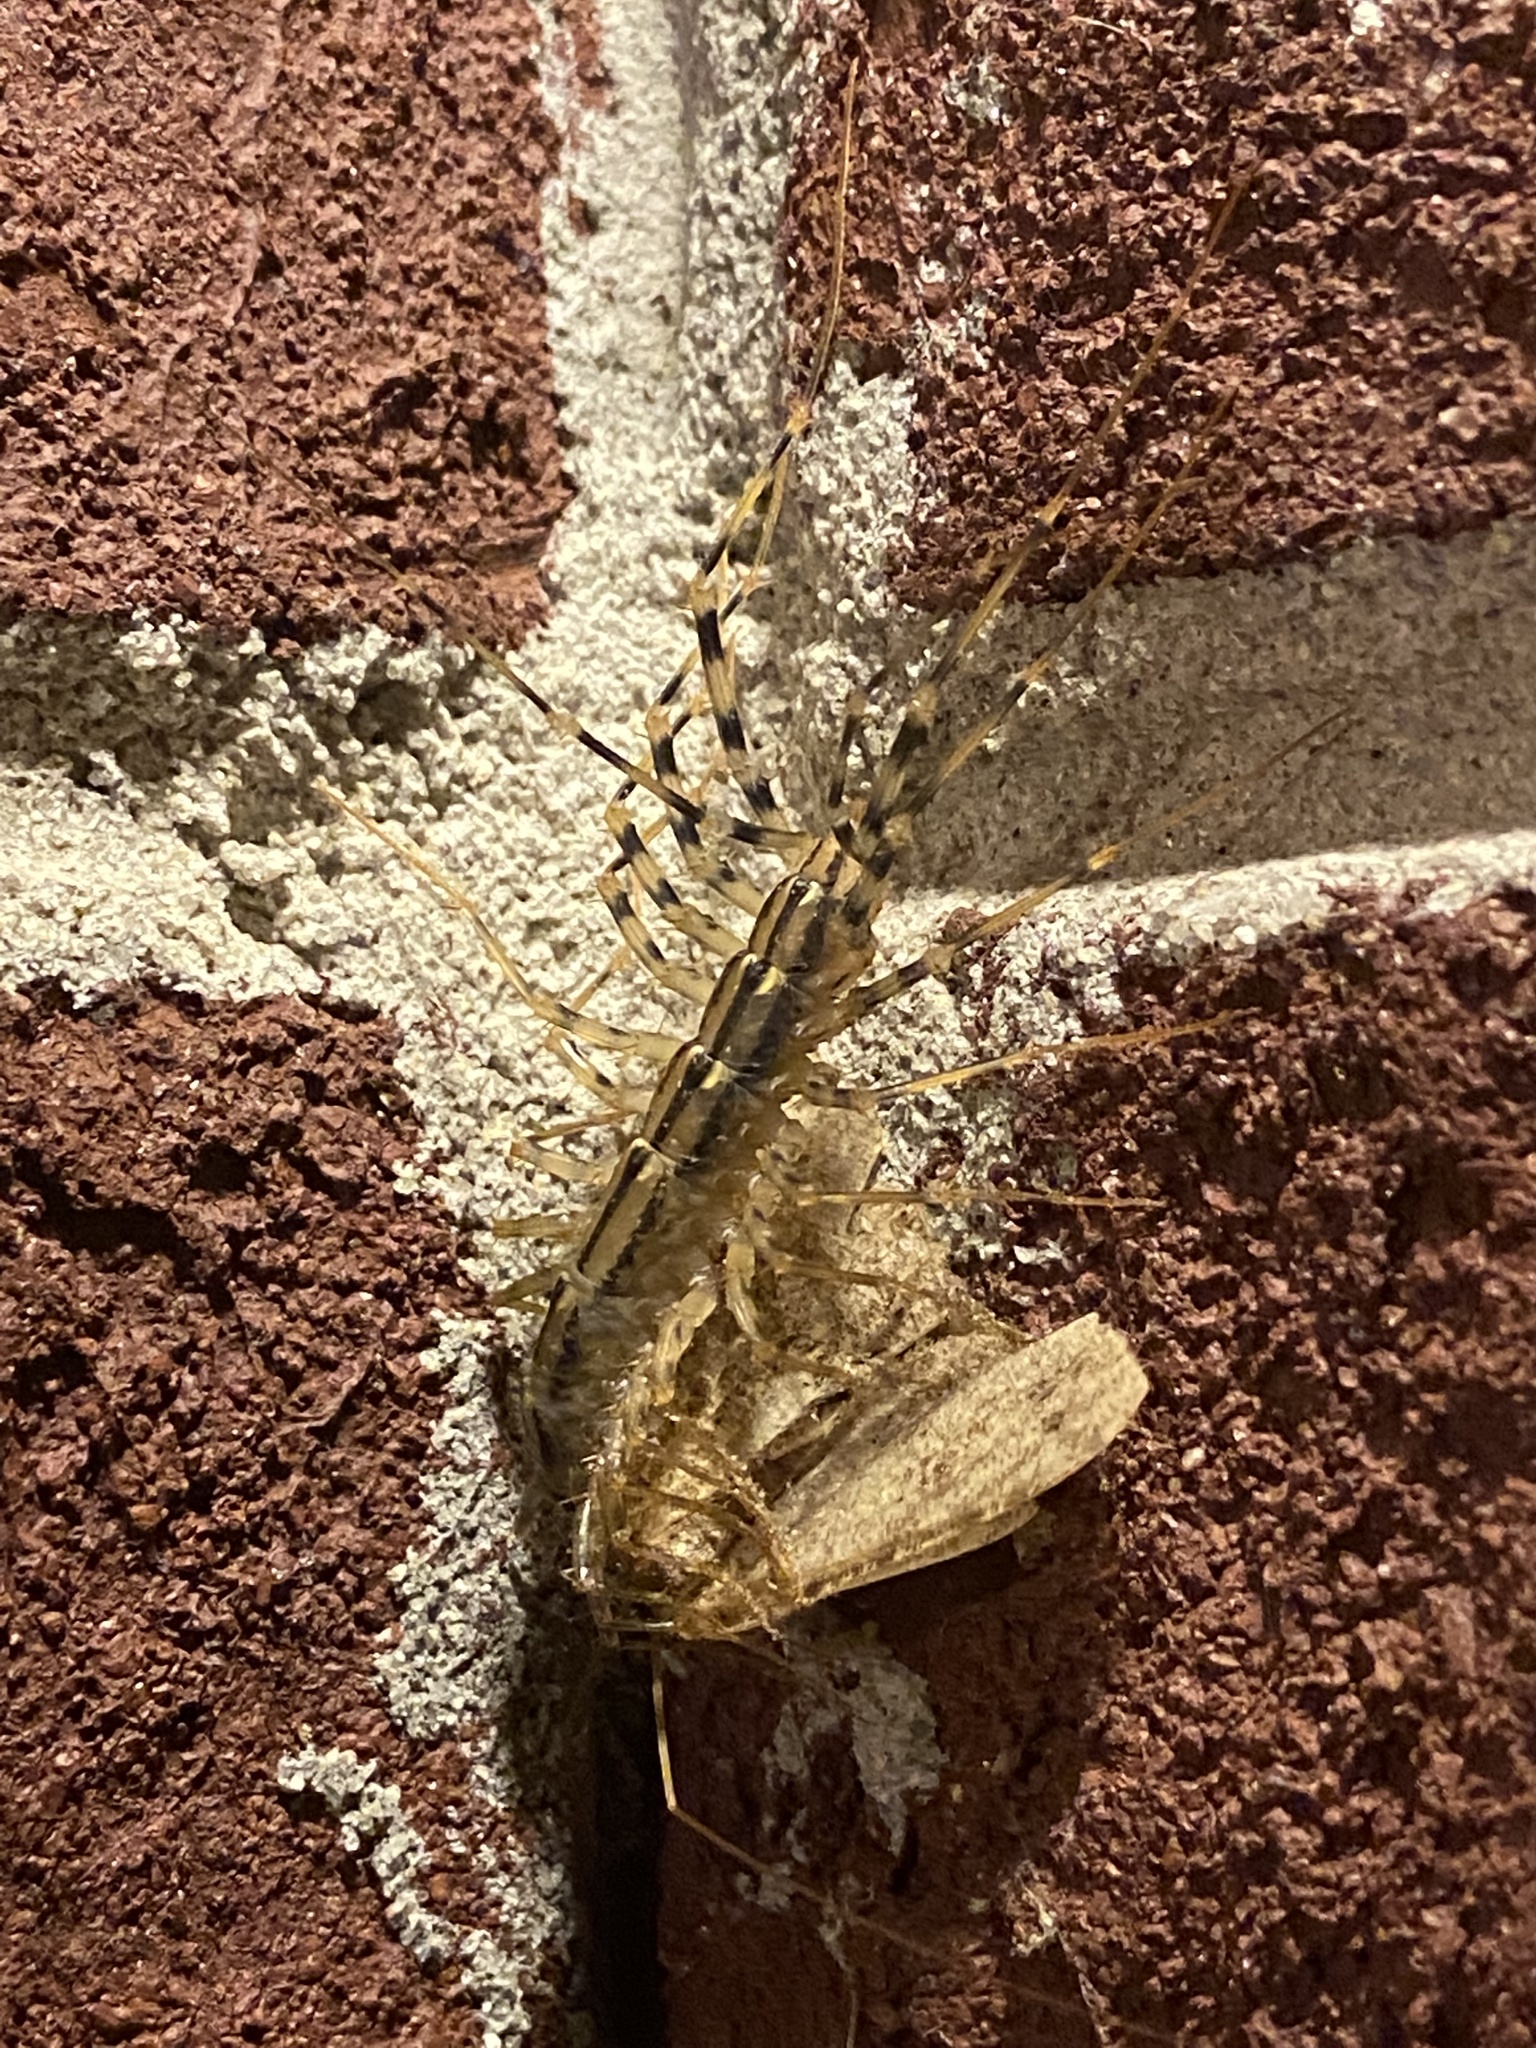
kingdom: Animalia
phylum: Arthropoda
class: Chilopoda
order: Scutigeromorpha
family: Scutigeridae
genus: Scutigera
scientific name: Scutigera coleoptrata
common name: House centipede
